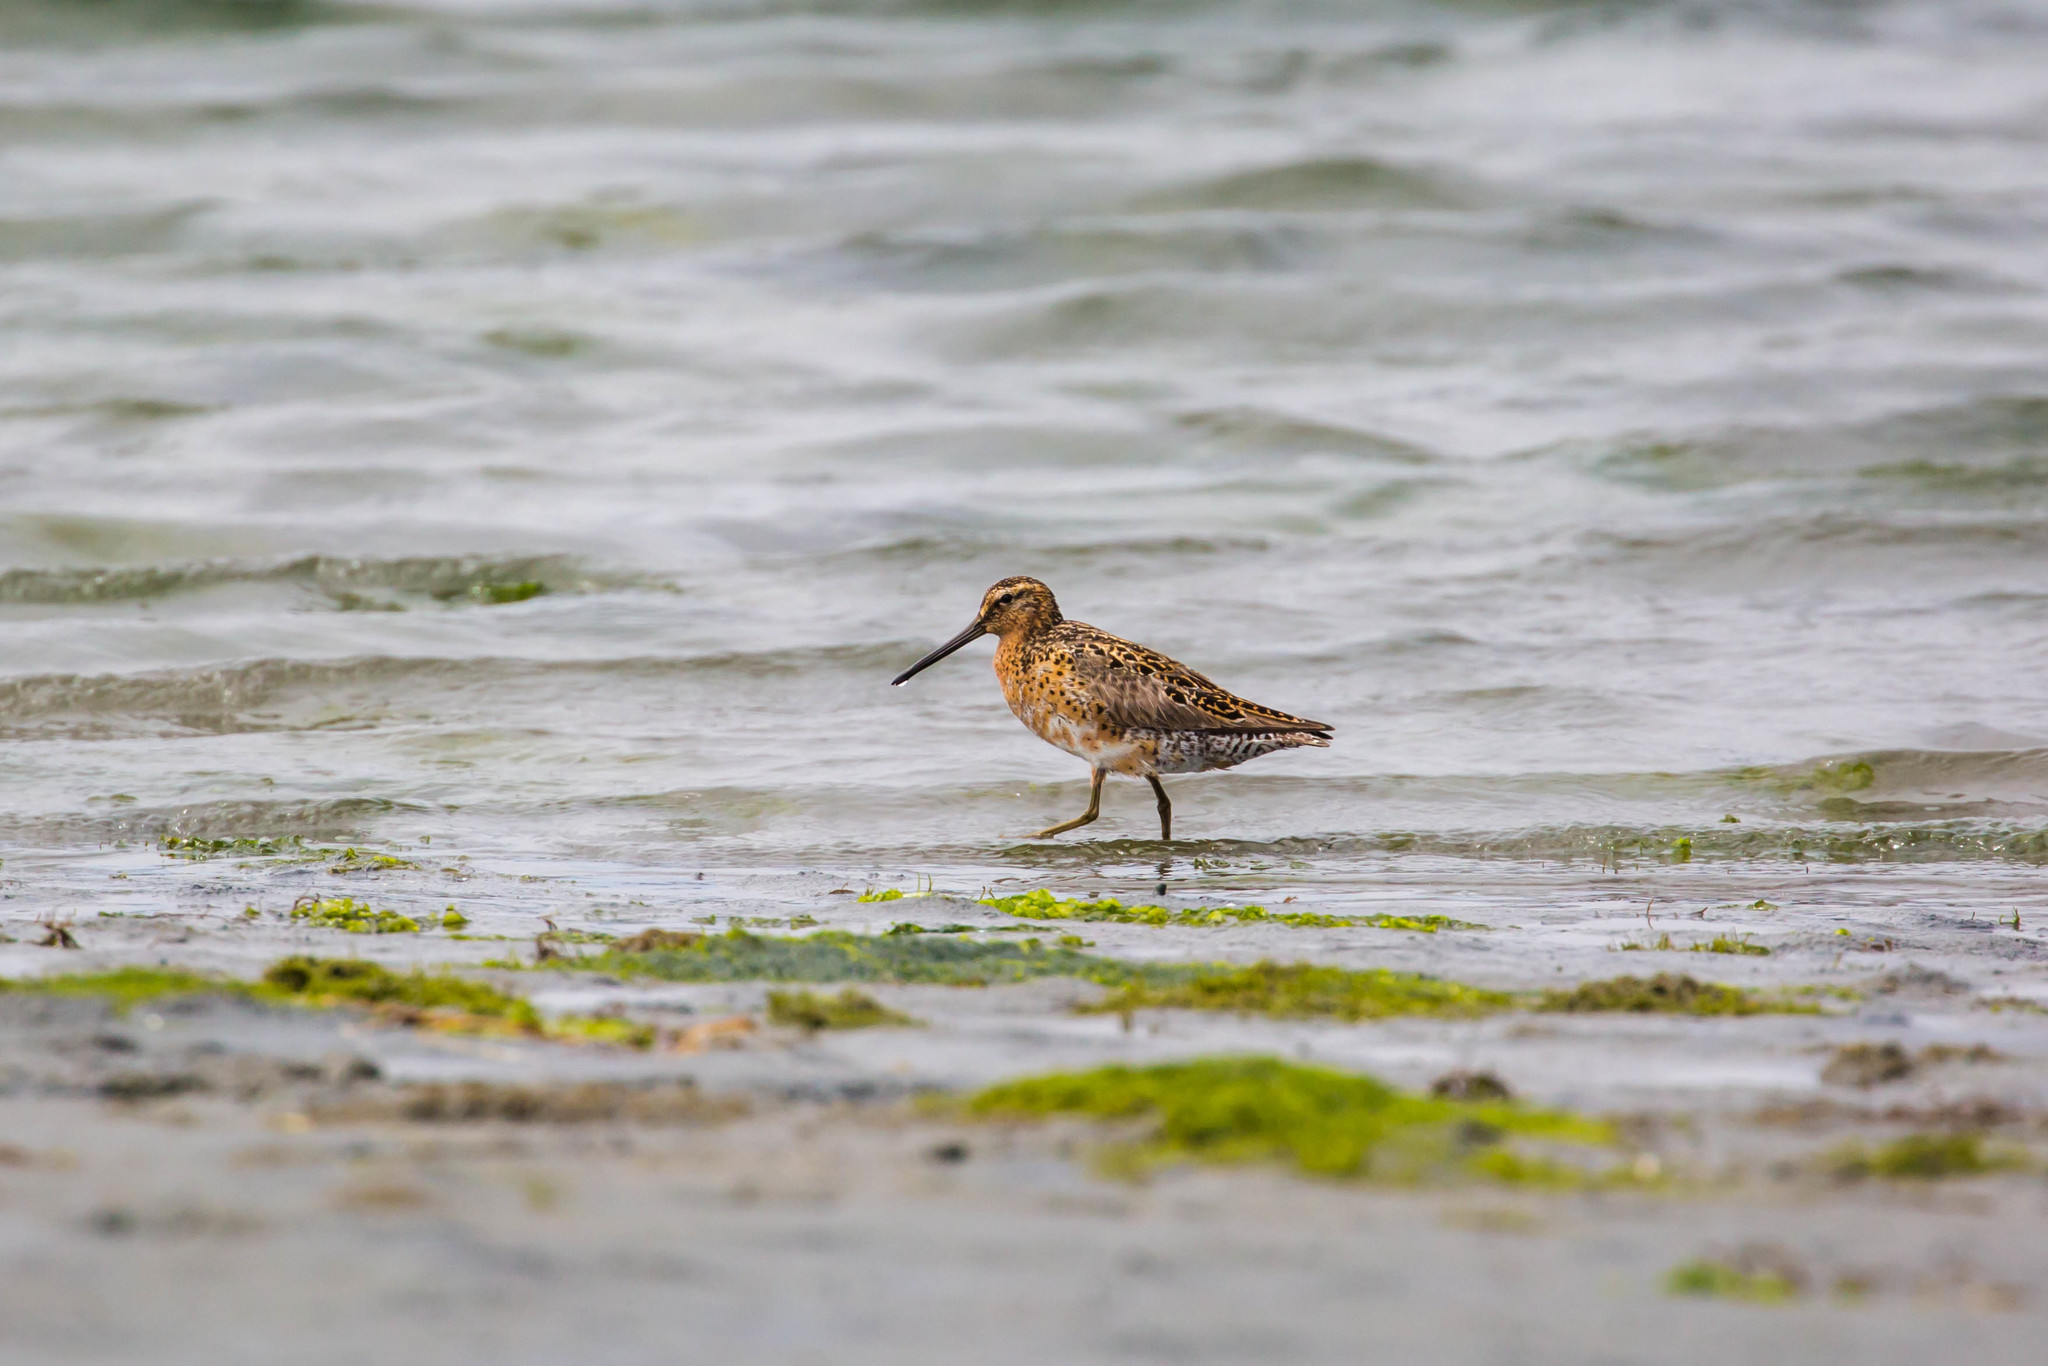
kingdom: Animalia
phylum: Chordata
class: Aves
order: Charadriiformes
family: Scolopacidae
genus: Limnodromus
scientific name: Limnodromus griseus
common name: Short-billed dowitcher
